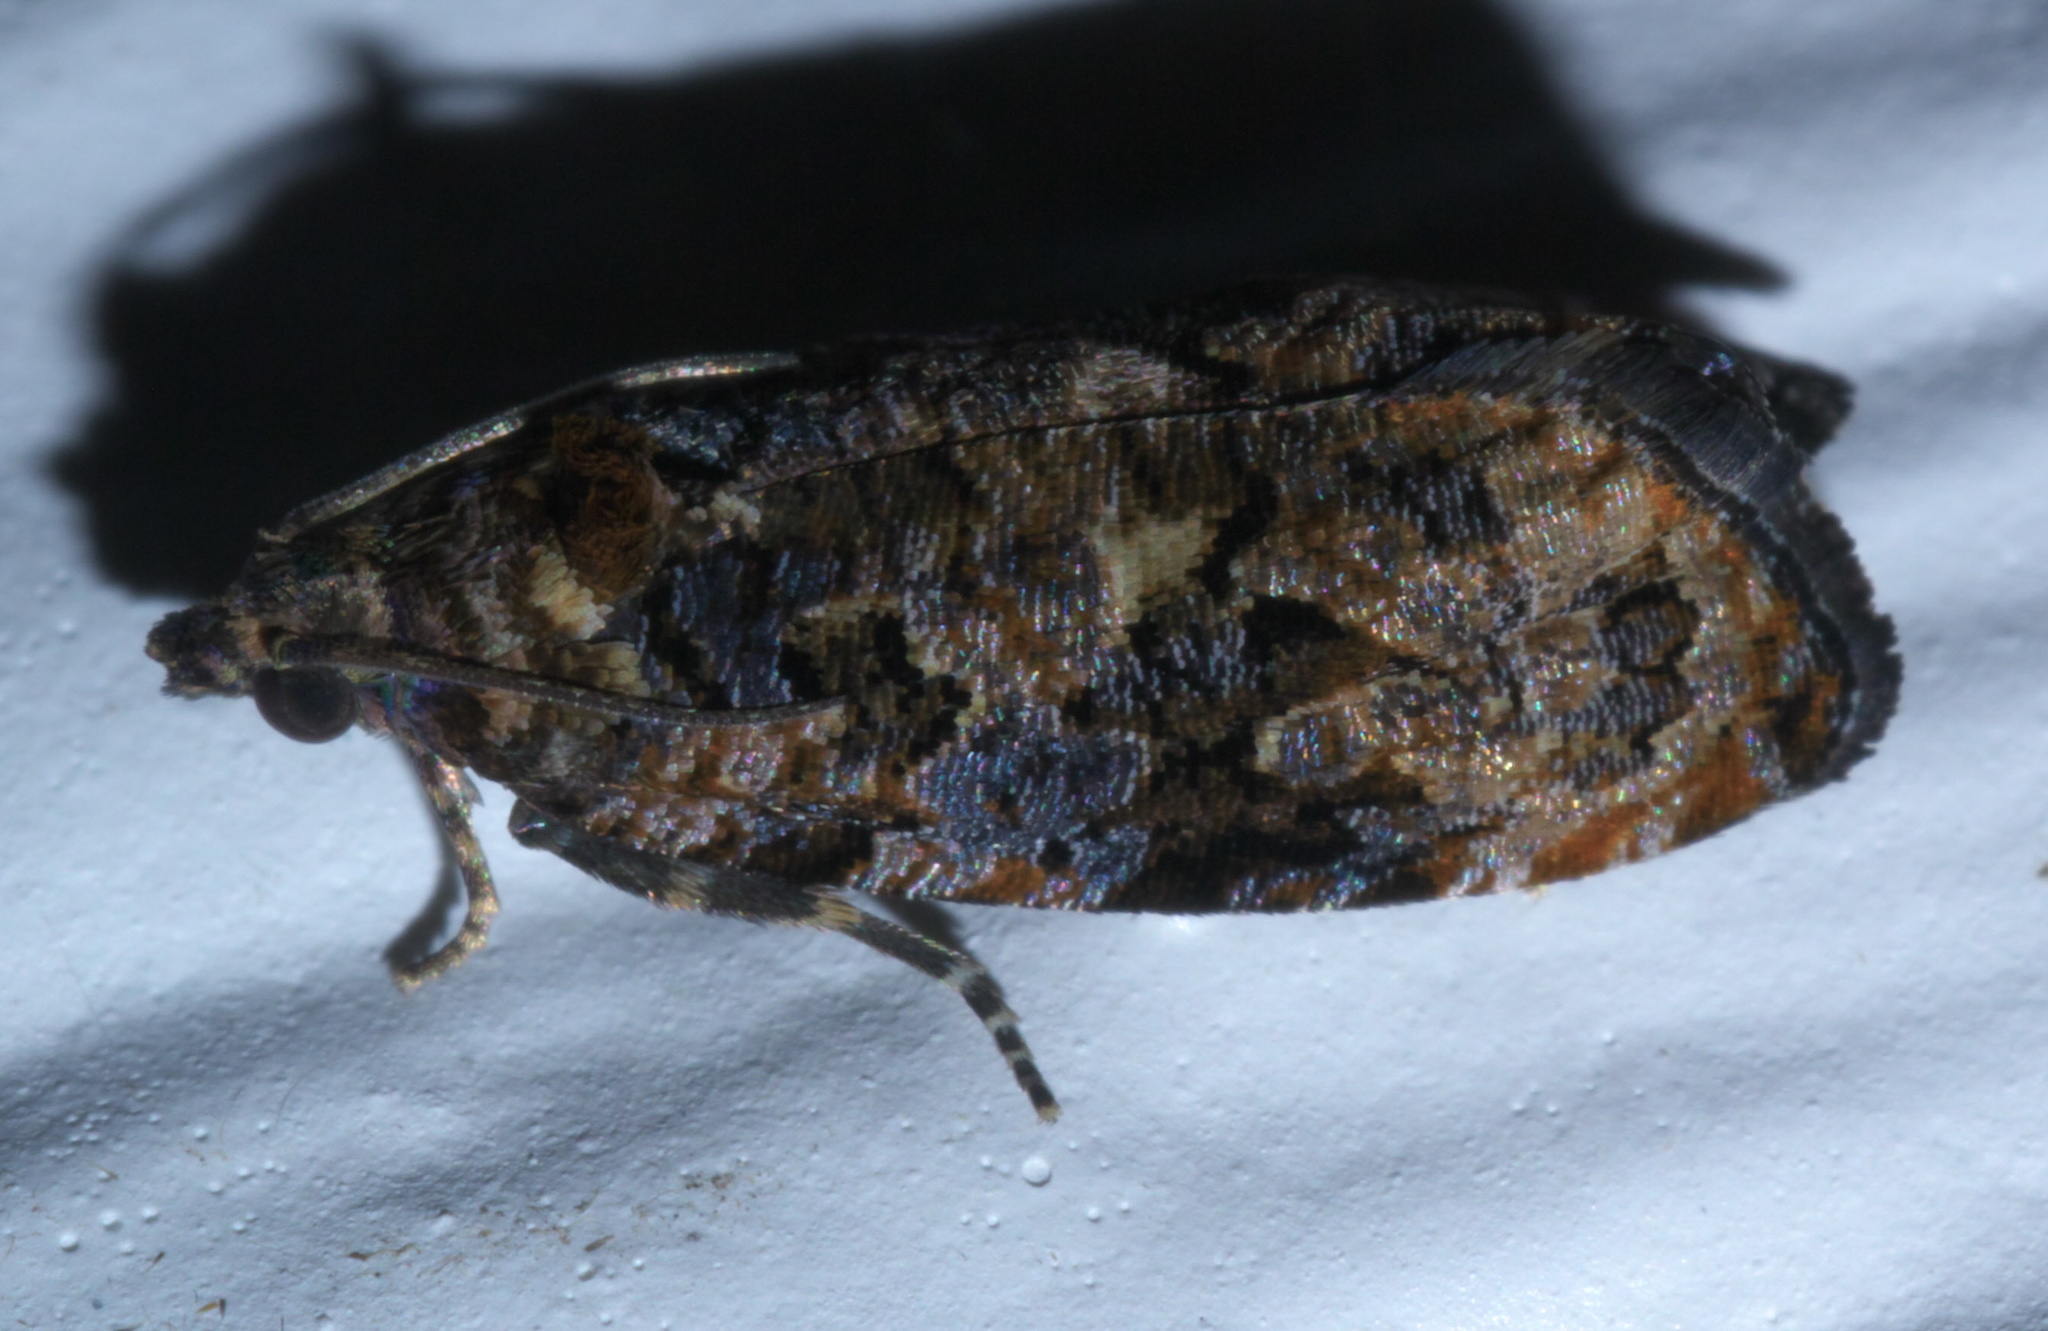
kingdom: Animalia
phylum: Arthropoda
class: Insecta
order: Lepidoptera
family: Tortricidae
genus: Endothenia
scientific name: Endothenia hebesana
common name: Verbena bud moth
